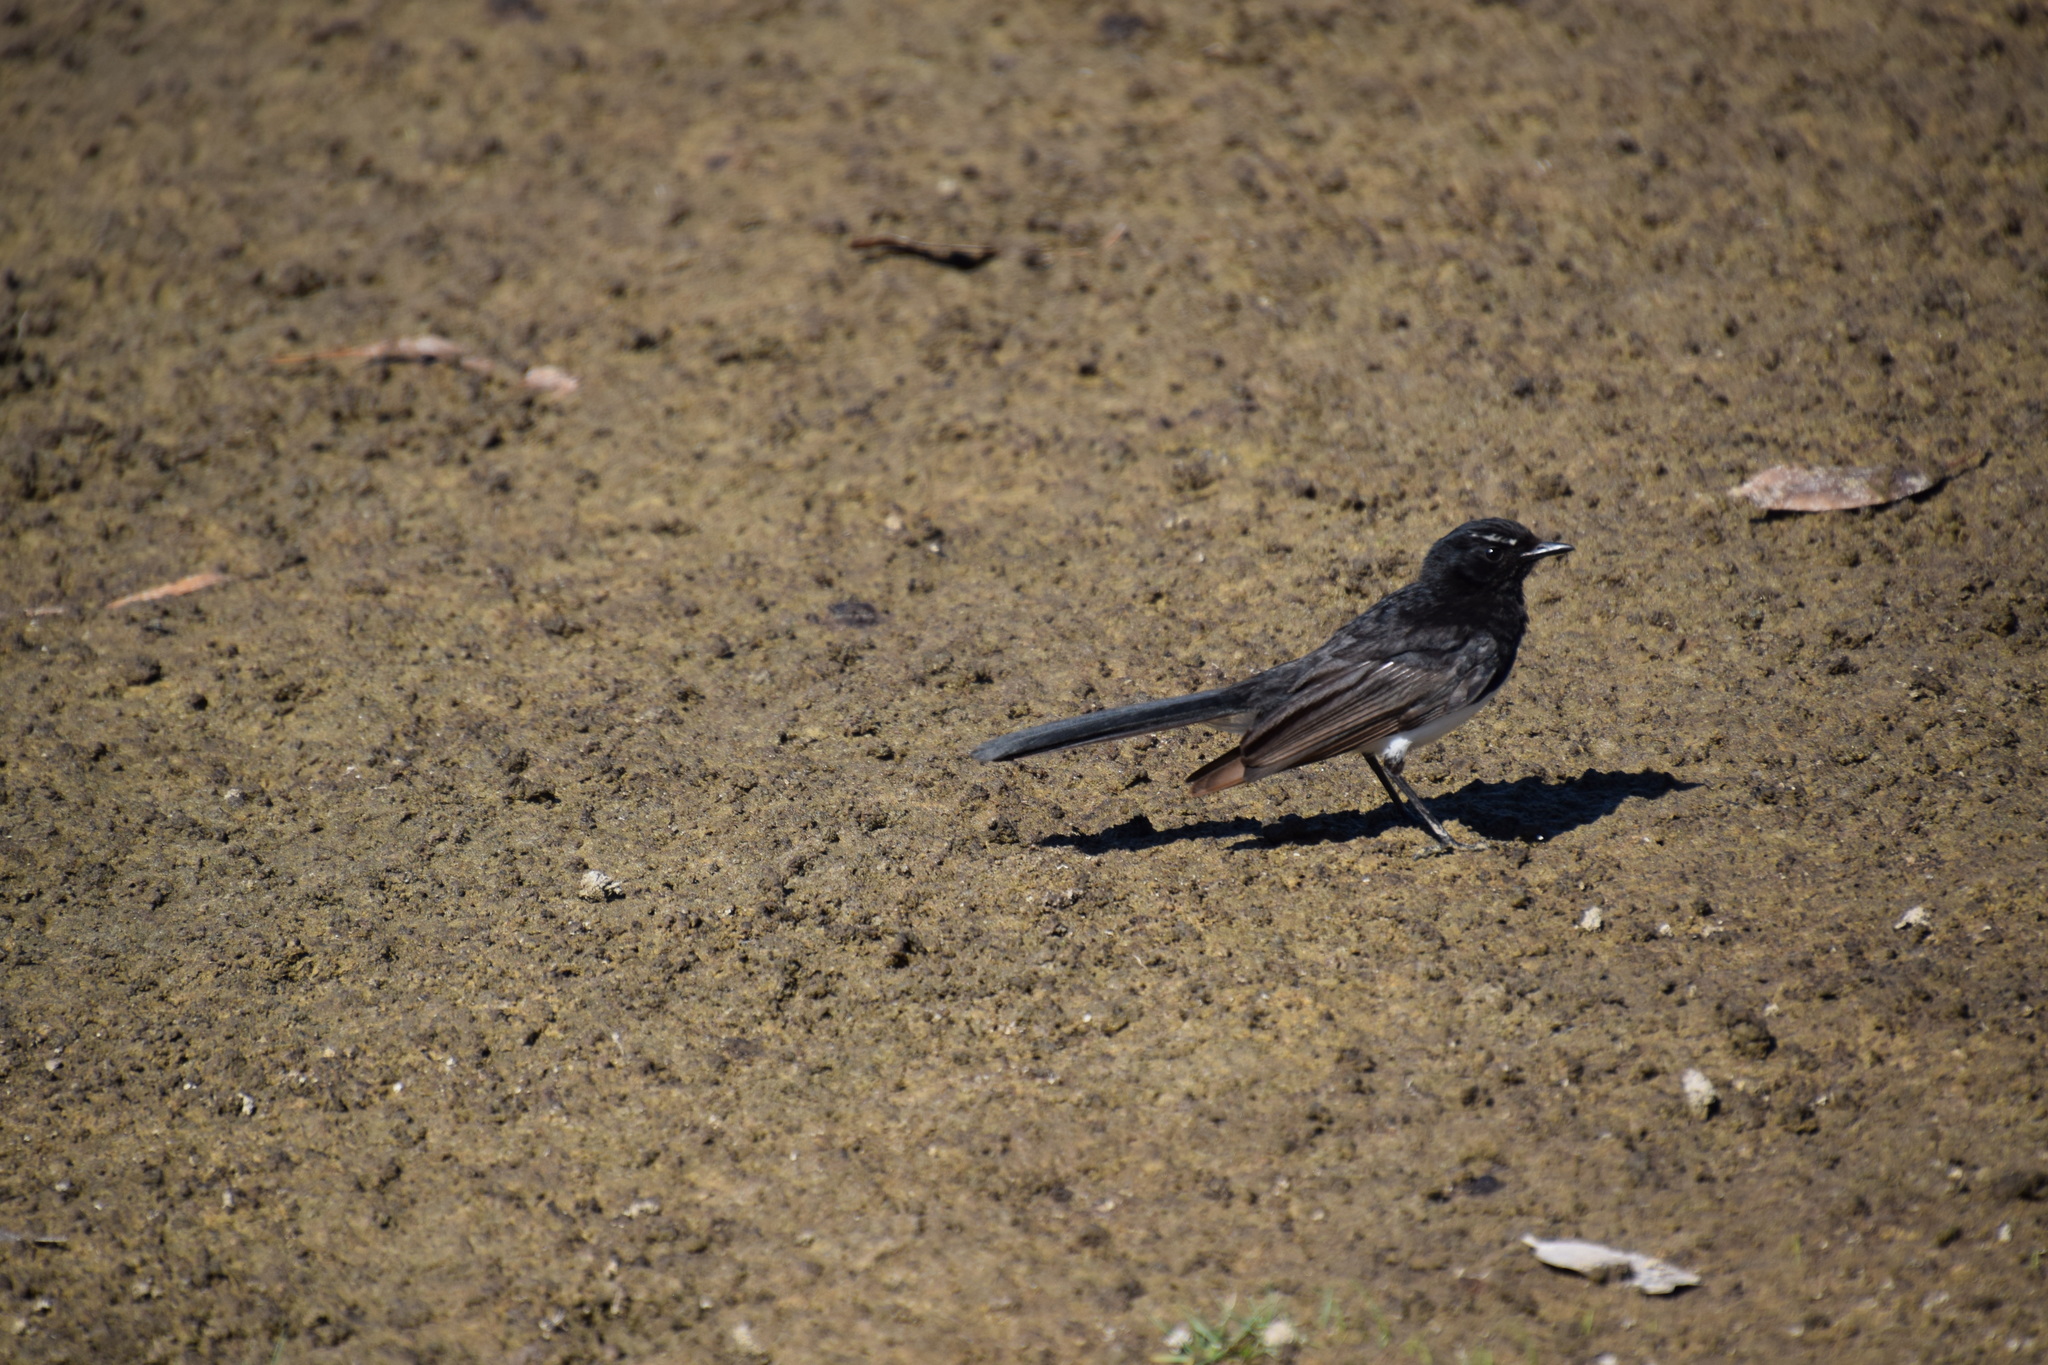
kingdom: Animalia
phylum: Chordata
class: Aves
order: Passeriformes
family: Rhipiduridae
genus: Rhipidura
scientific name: Rhipidura leucophrys
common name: Willie wagtail
